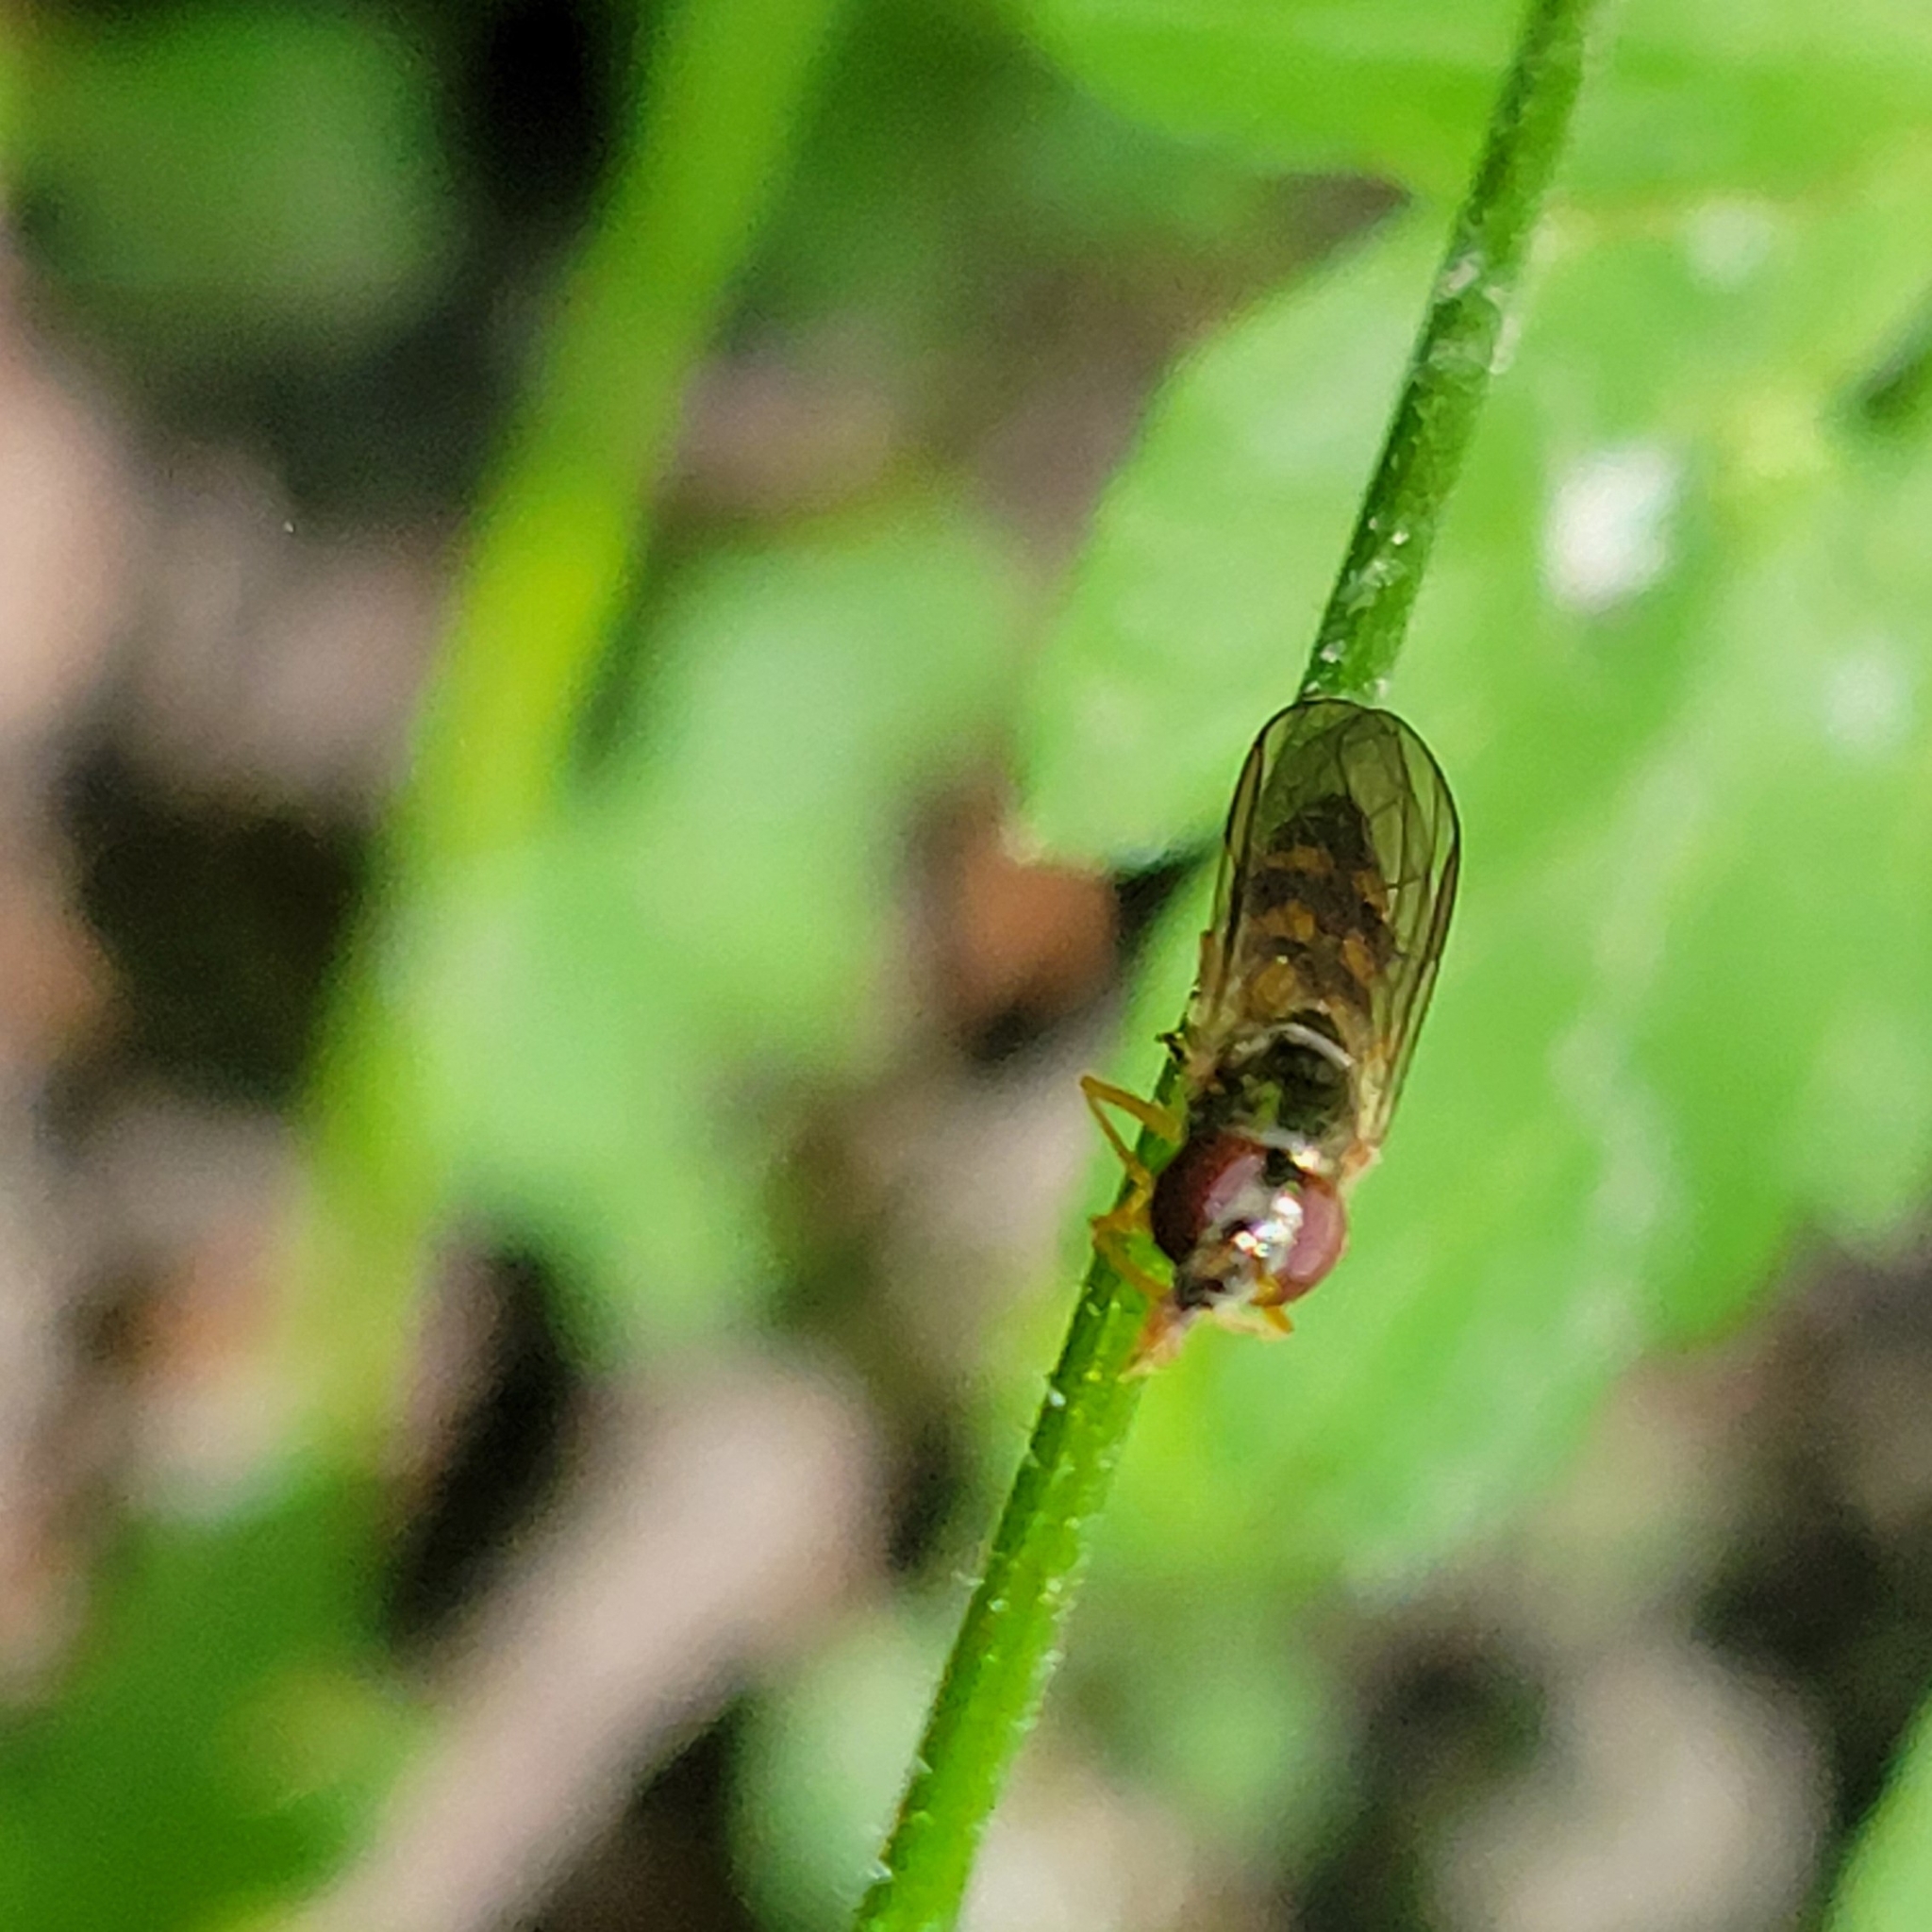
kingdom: Animalia
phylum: Arthropoda
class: Insecta
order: Diptera
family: Syrphidae
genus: Melanostoma
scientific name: Melanostoma mellina
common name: Hover fly
